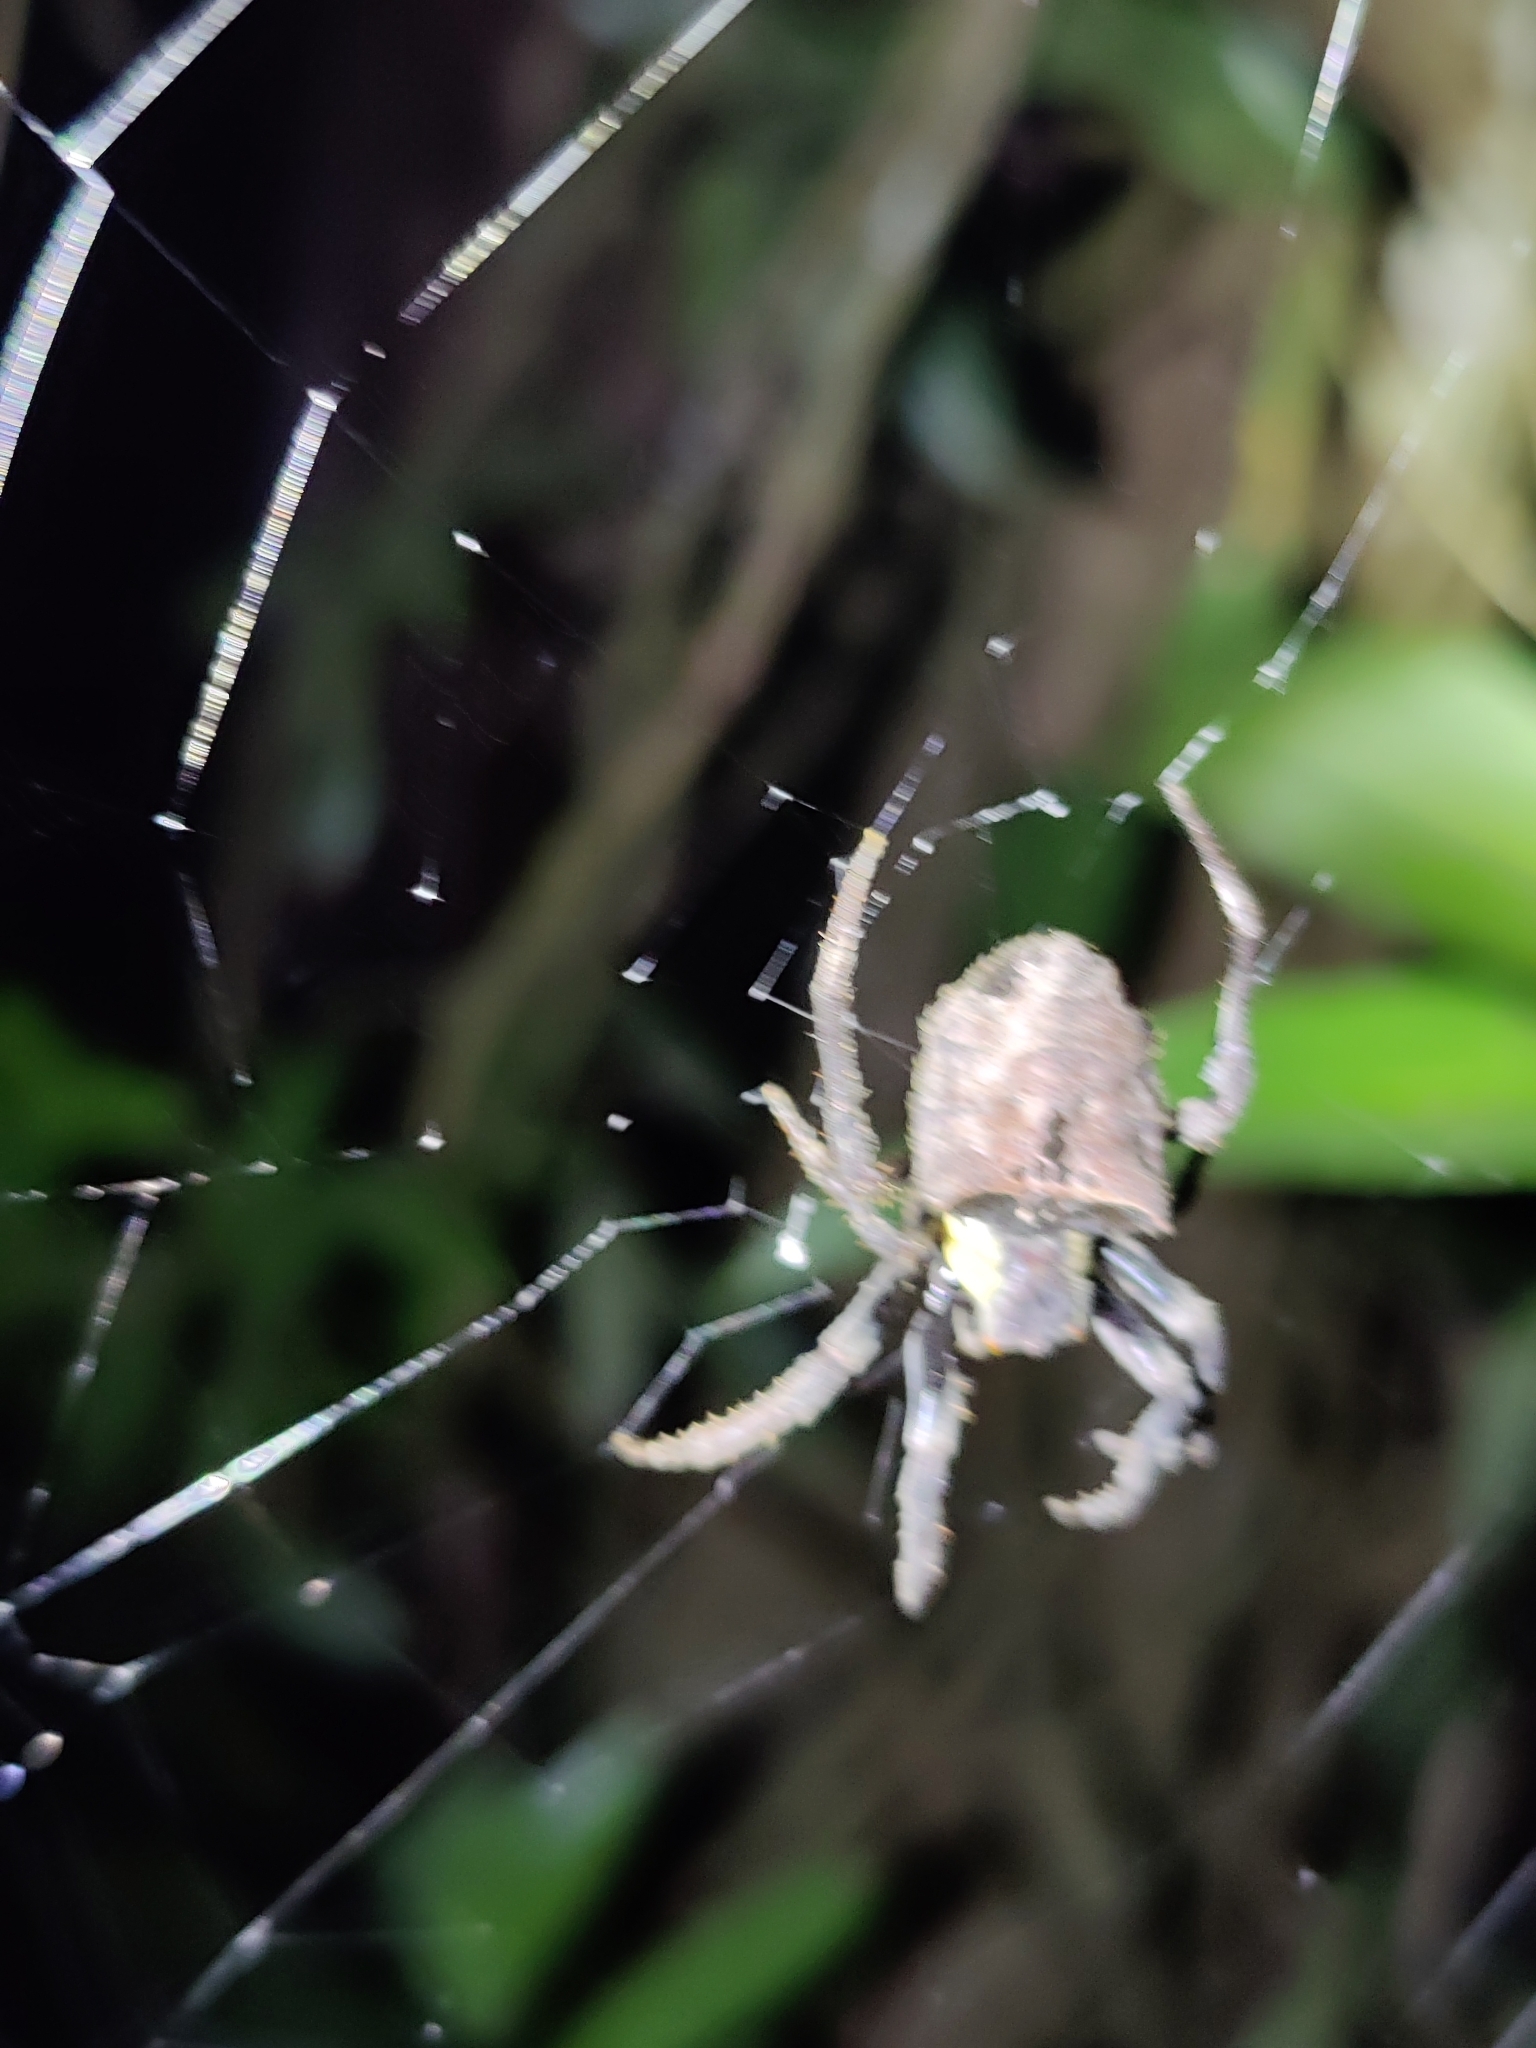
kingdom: Animalia
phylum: Arthropoda
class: Arachnida
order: Araneae
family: Araneidae
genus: Parawixia
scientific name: Parawixia dehaani
